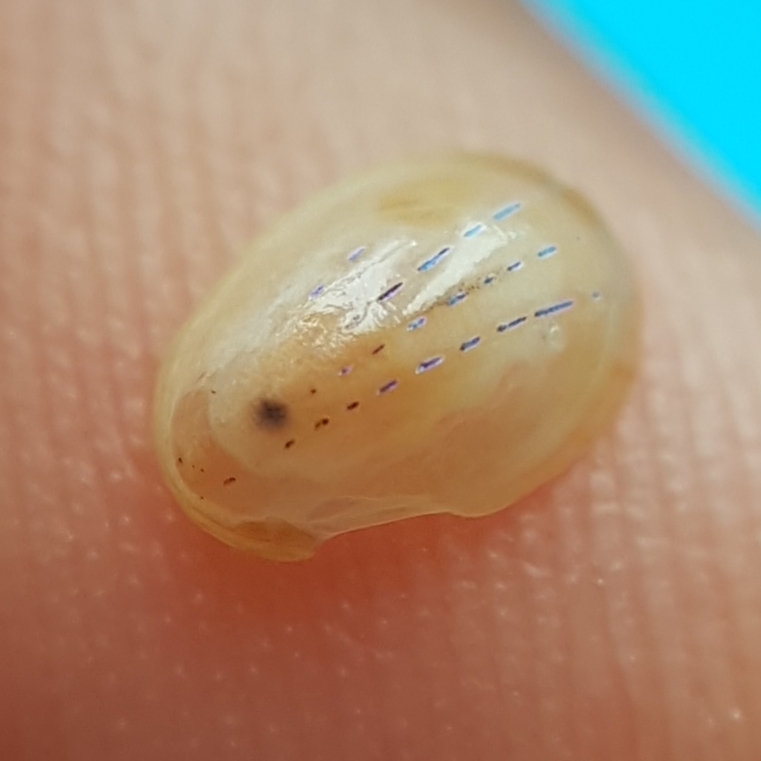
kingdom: Animalia
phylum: Mollusca
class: Gastropoda
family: Patellidae
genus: Patella
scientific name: Patella pellucida
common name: Blue-rayed limpet
